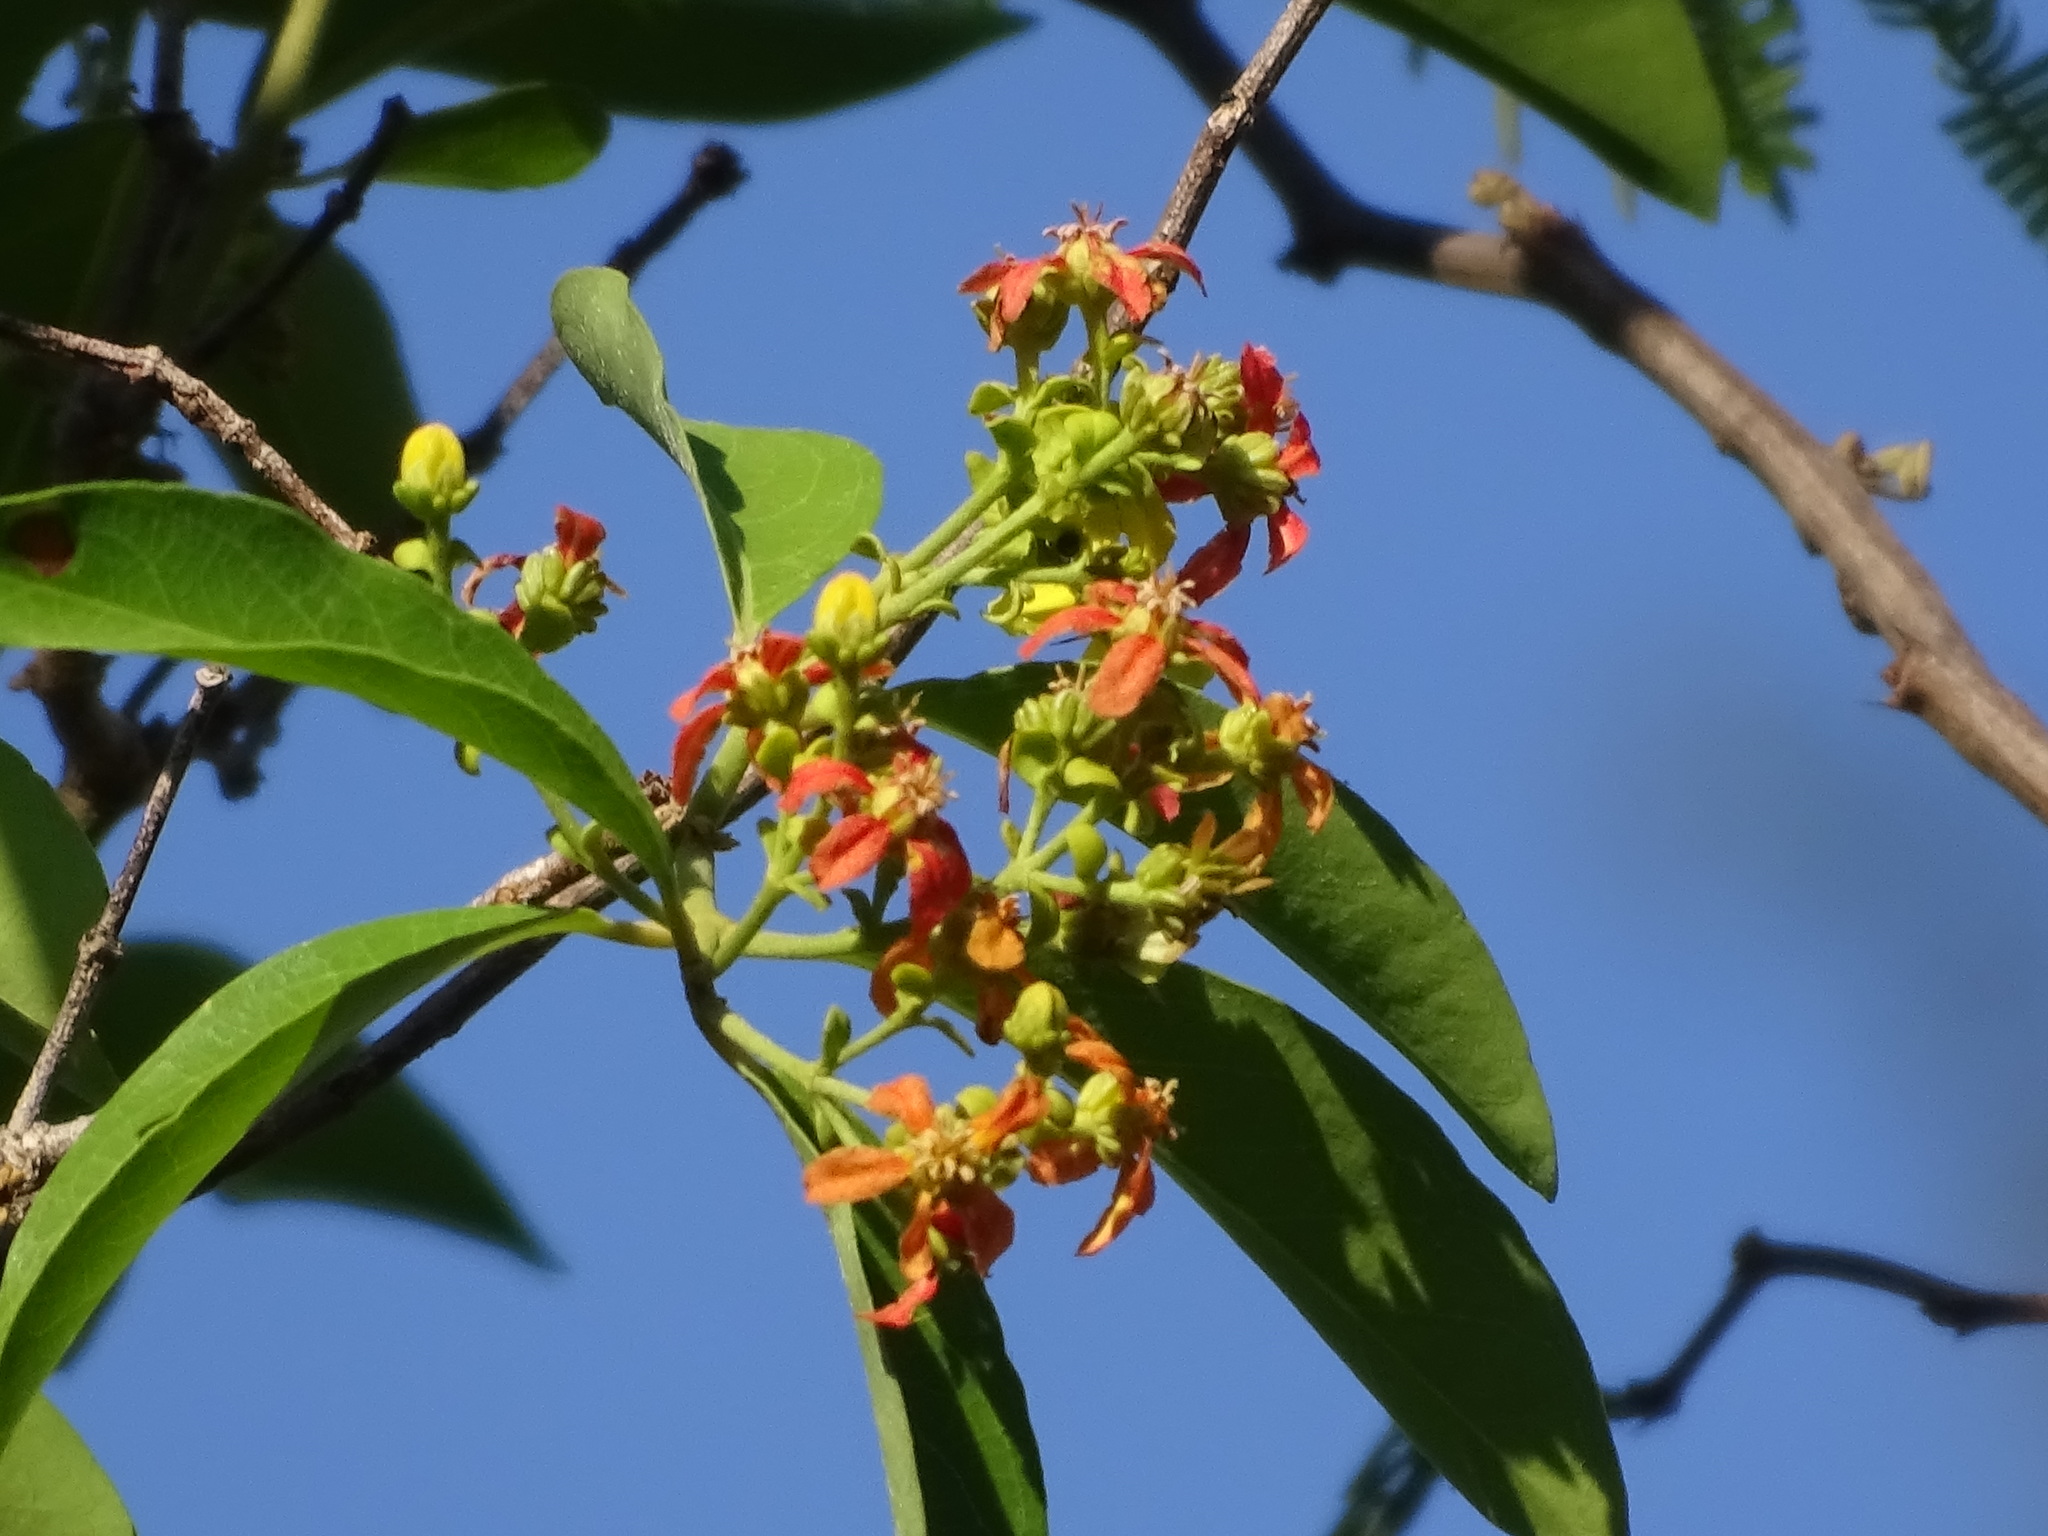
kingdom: Plantae
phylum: Tracheophyta
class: Magnoliopsida
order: Malpighiales
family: Malpighiaceae
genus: Tetrapterys
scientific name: Tetrapterys schiedeana
